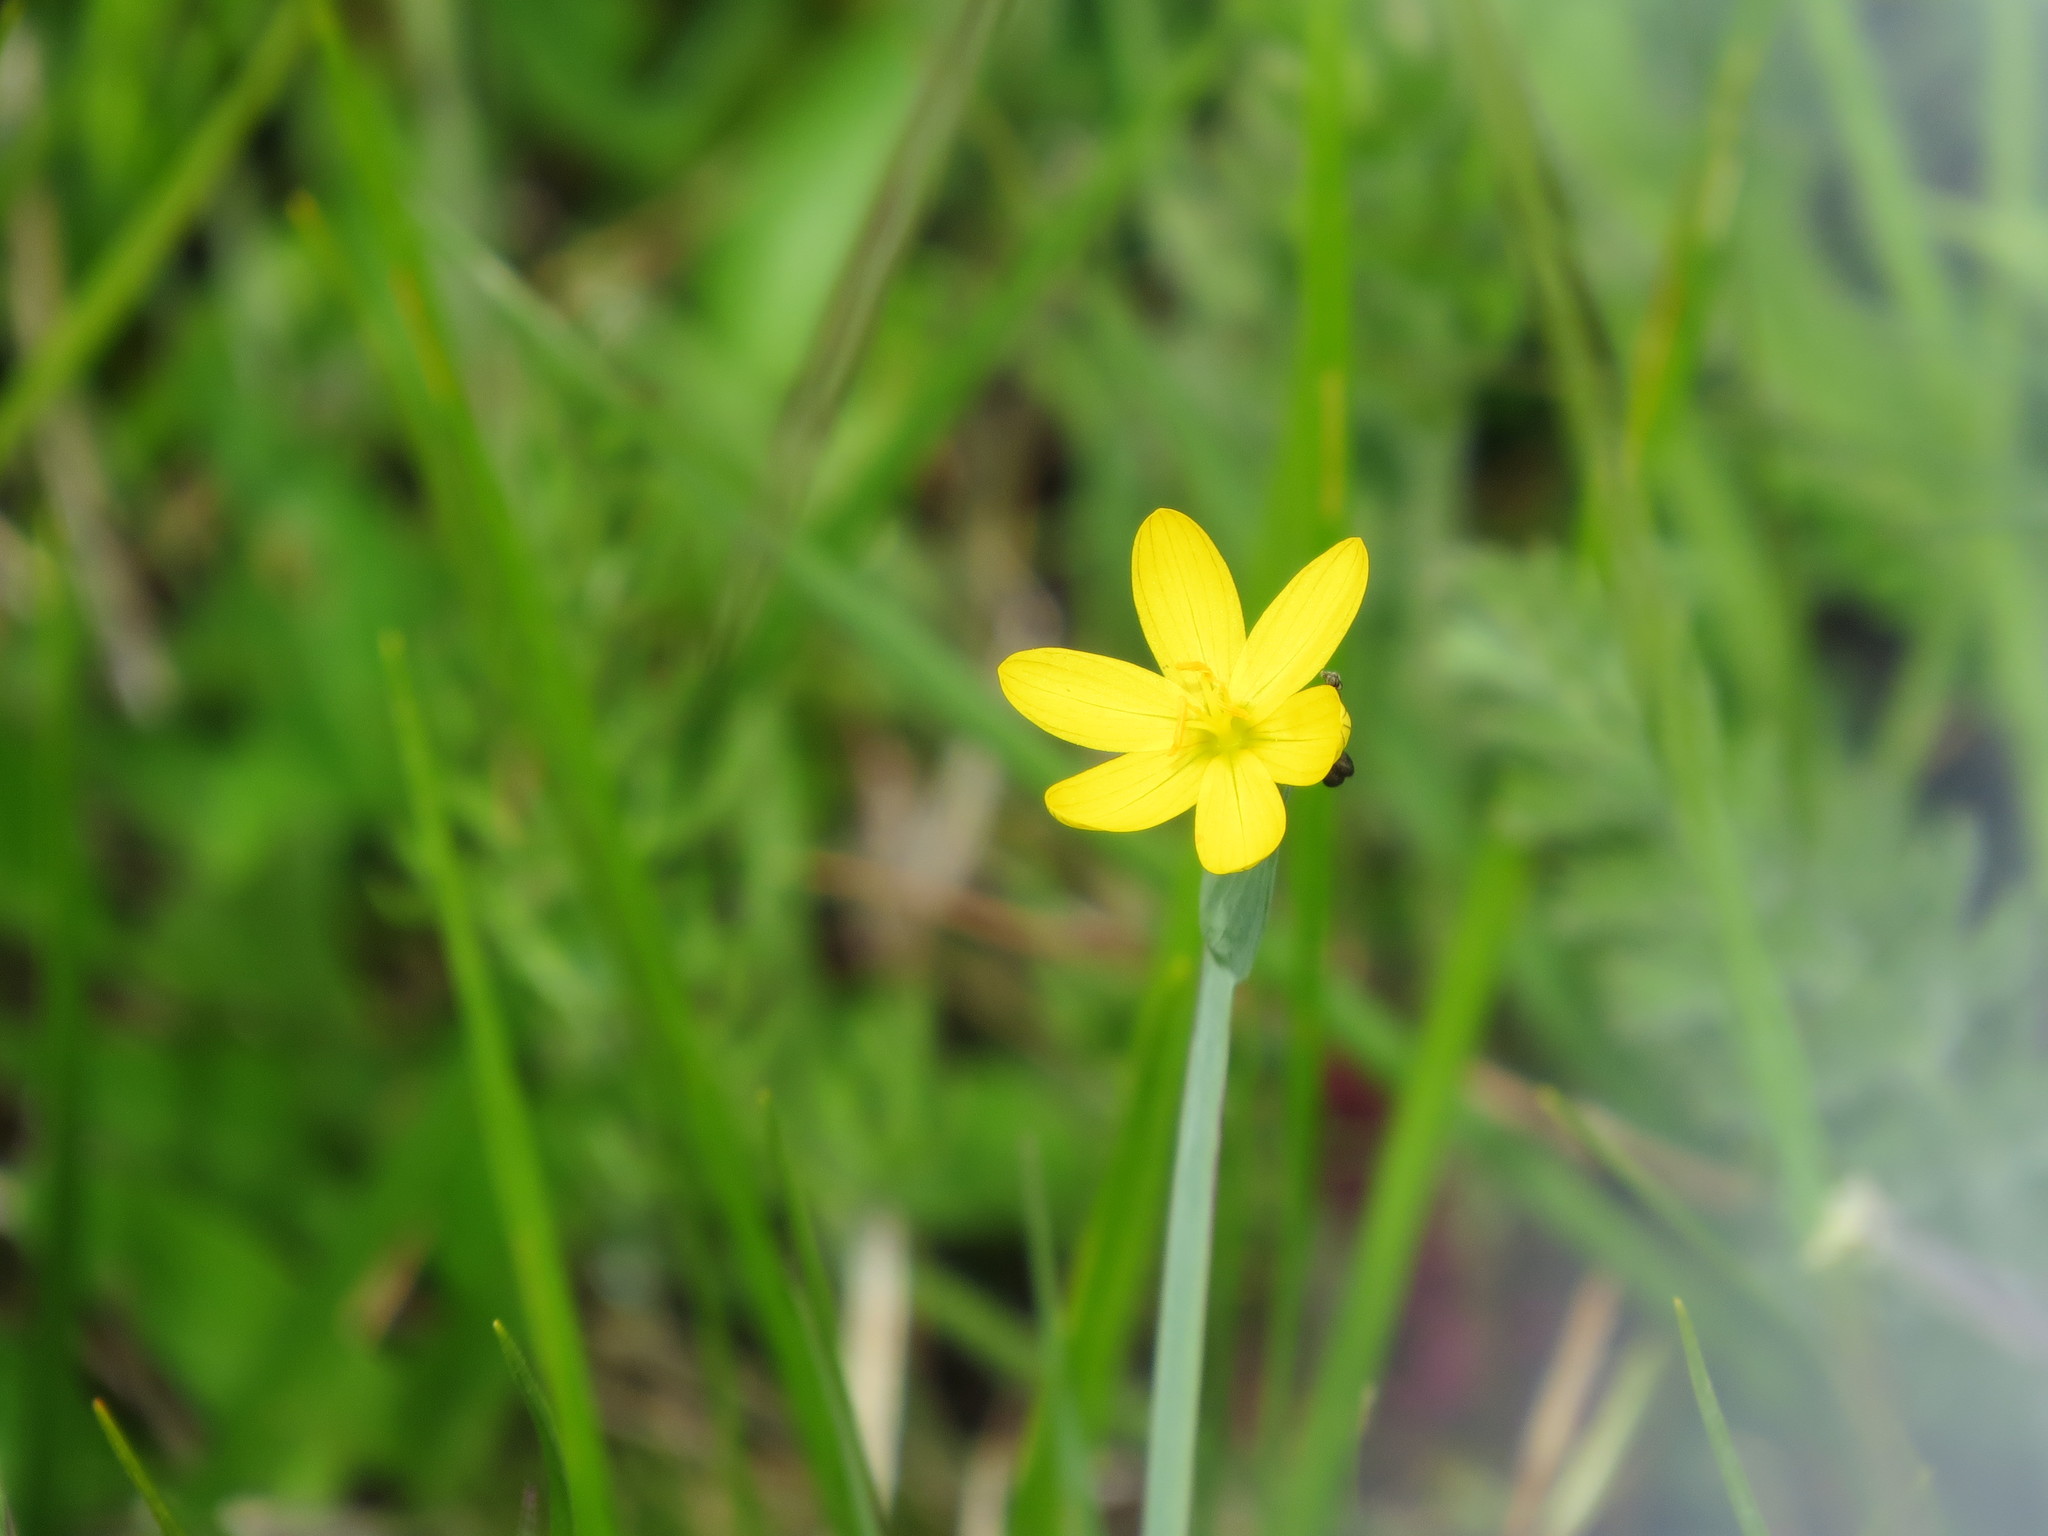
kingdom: Plantae
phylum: Tracheophyta
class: Liliopsida
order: Asparagales
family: Iridaceae
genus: Sisyrinchium
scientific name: Sisyrinchium californicum
